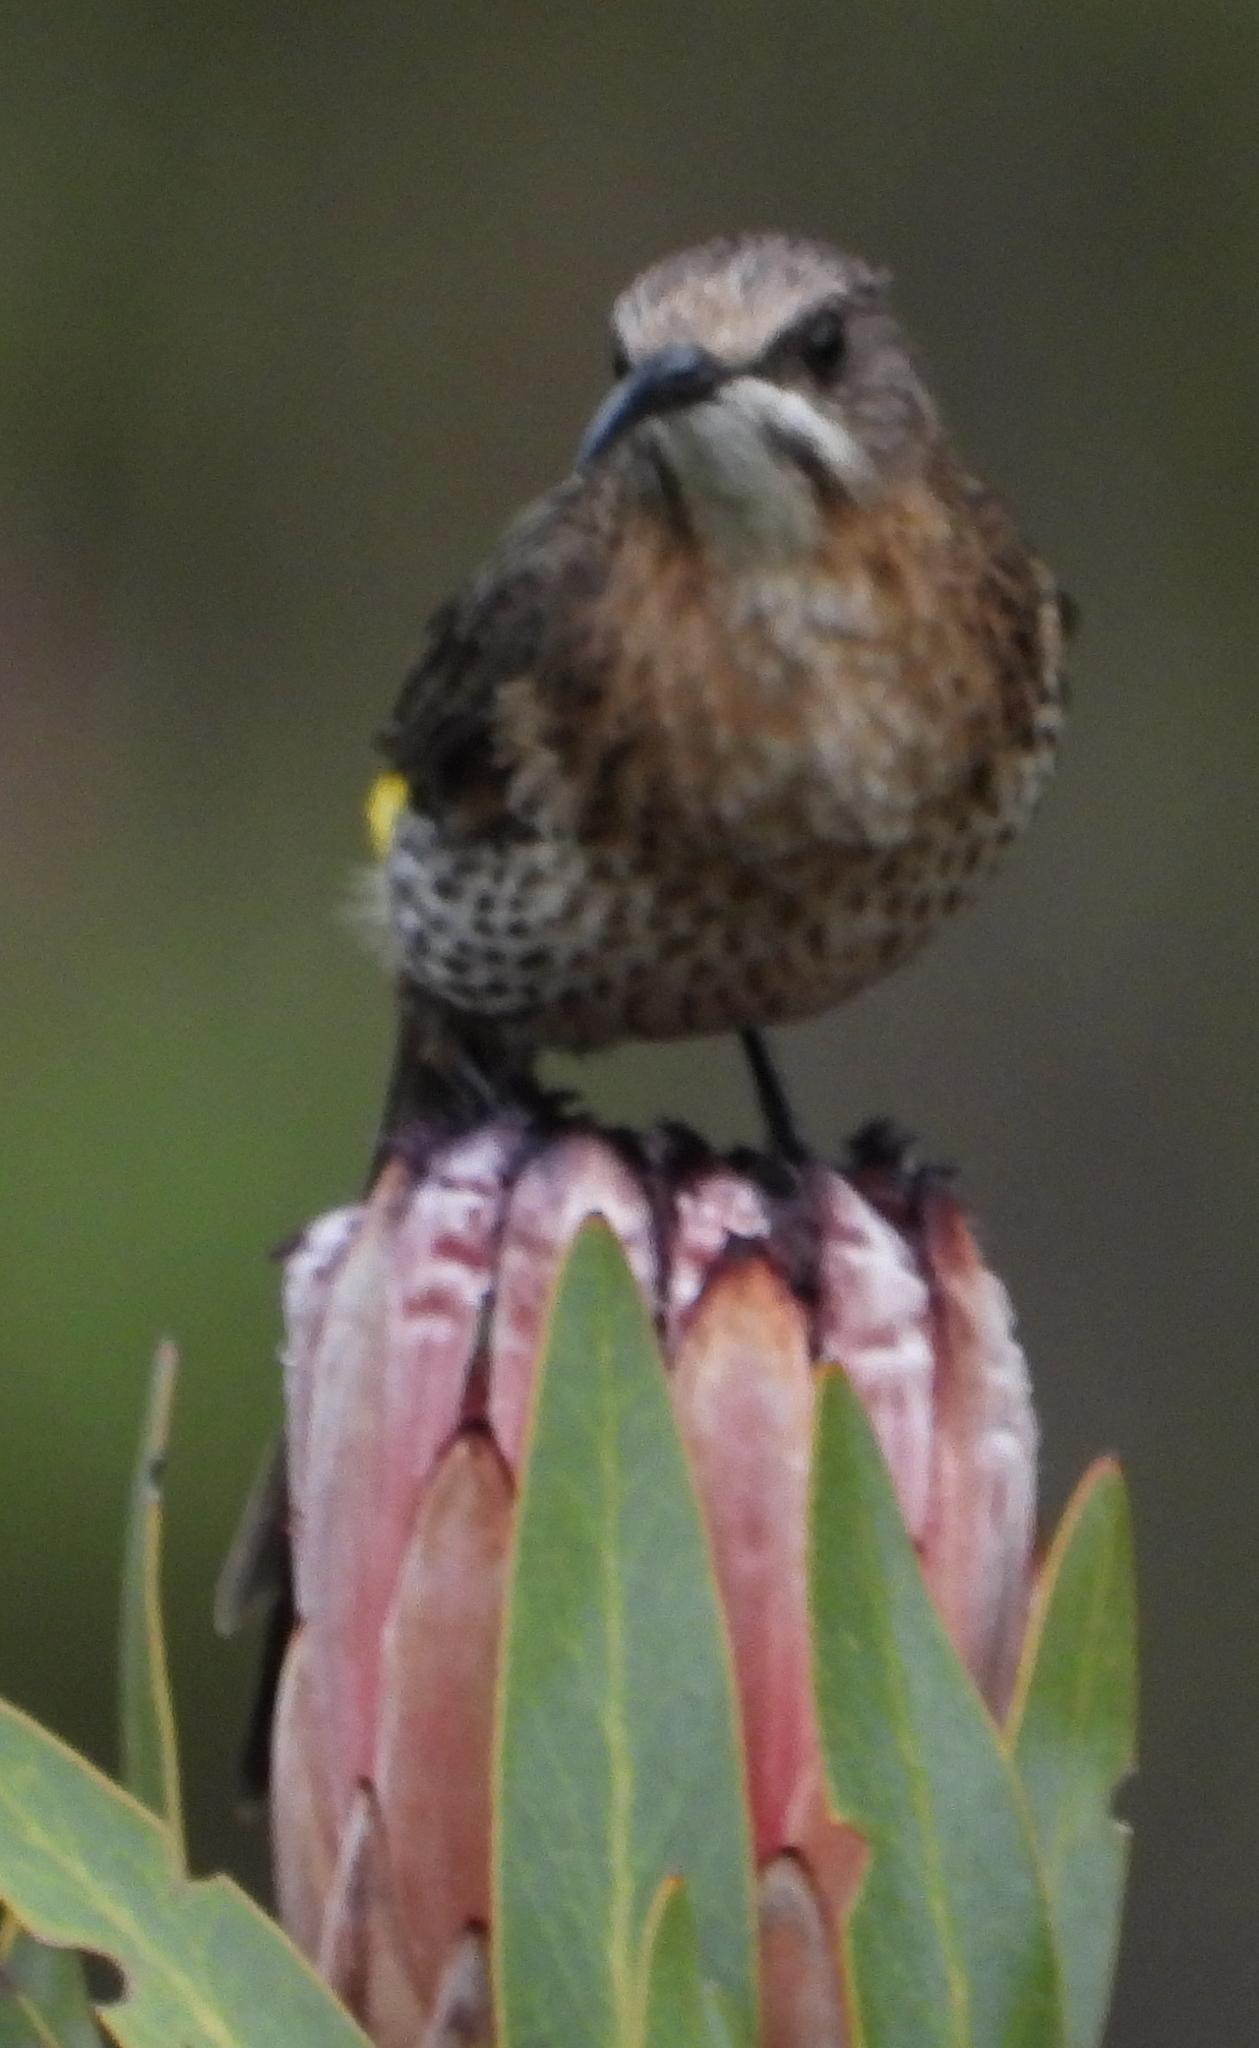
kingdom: Animalia
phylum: Chordata
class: Aves
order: Passeriformes
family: Promeropidae
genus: Promerops
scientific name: Promerops cafer
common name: Cape sugarbird
